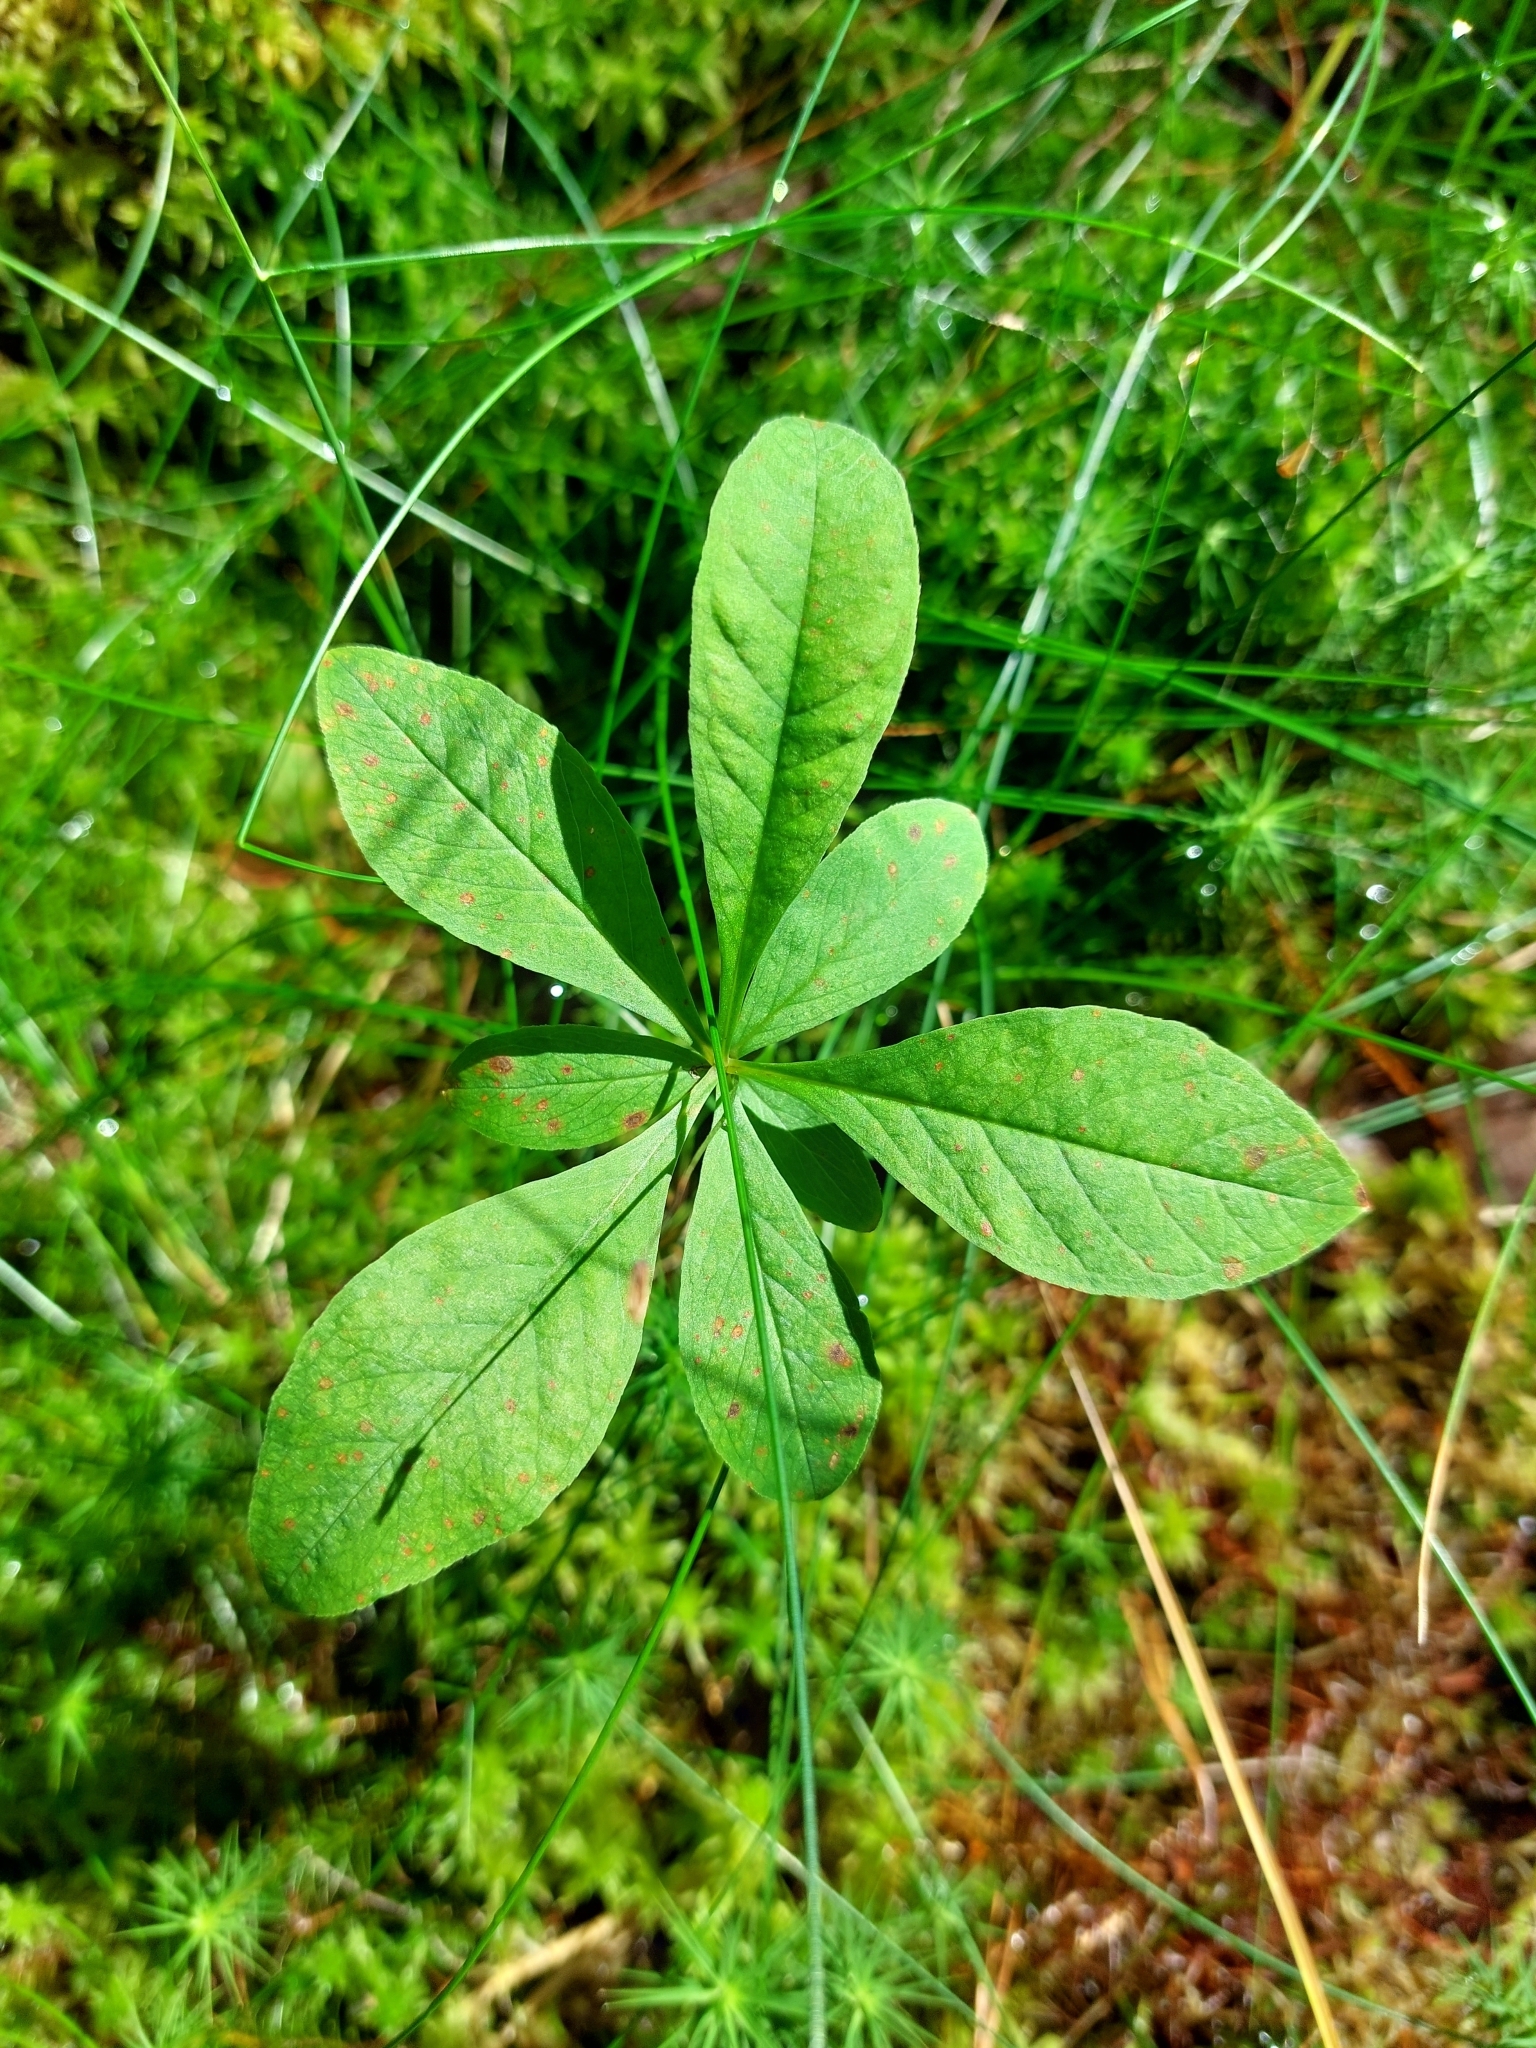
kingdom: Plantae
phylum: Tracheophyta
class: Magnoliopsida
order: Ericales
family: Primulaceae
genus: Lysimachia
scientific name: Lysimachia europaea
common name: Arctic starflower
